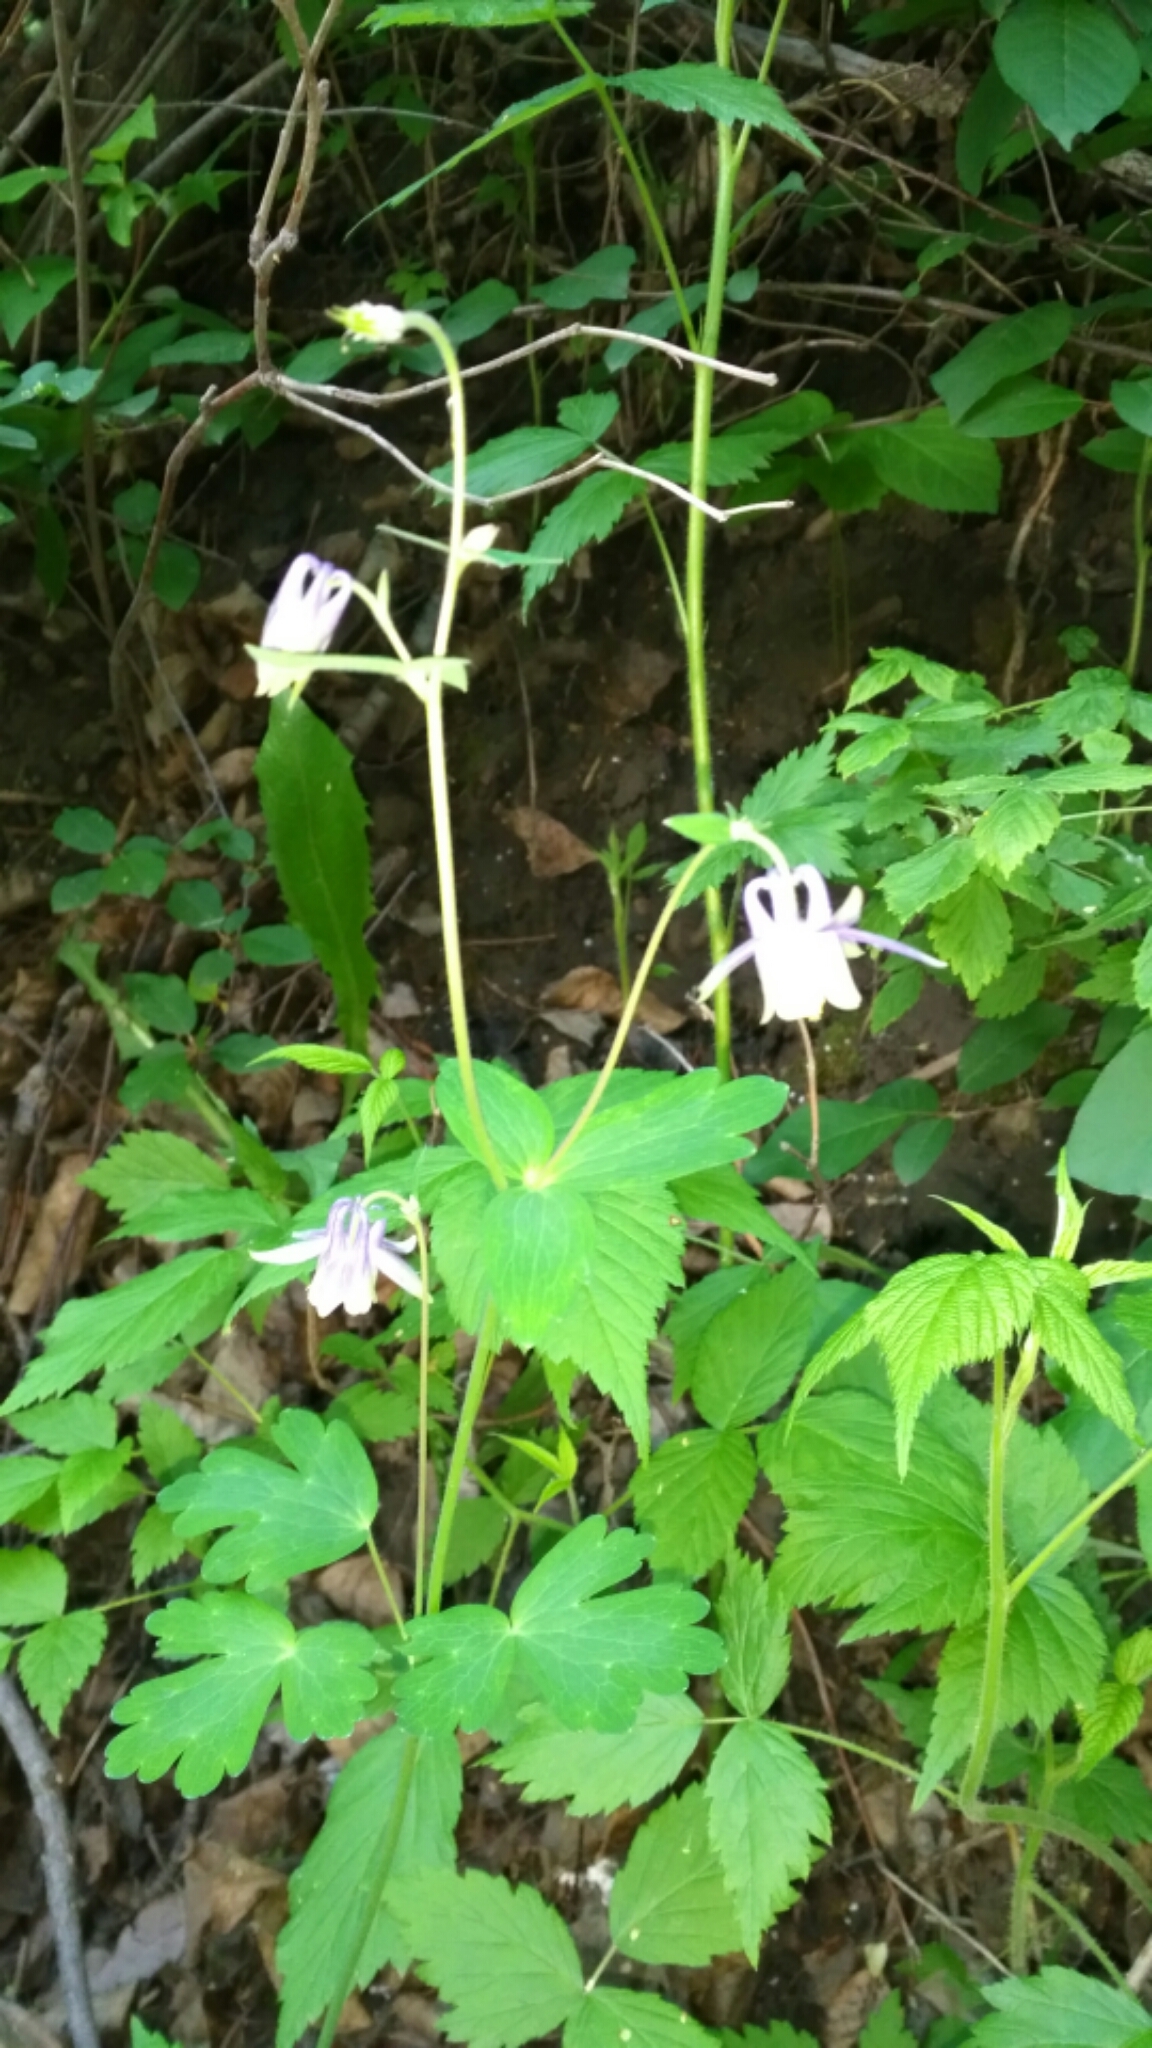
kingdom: Plantae
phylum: Tracheophyta
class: Magnoliopsida
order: Ranunculales
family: Ranunculaceae
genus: Aquilegia
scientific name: Aquilegia brevistyla
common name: Yukon columbine
